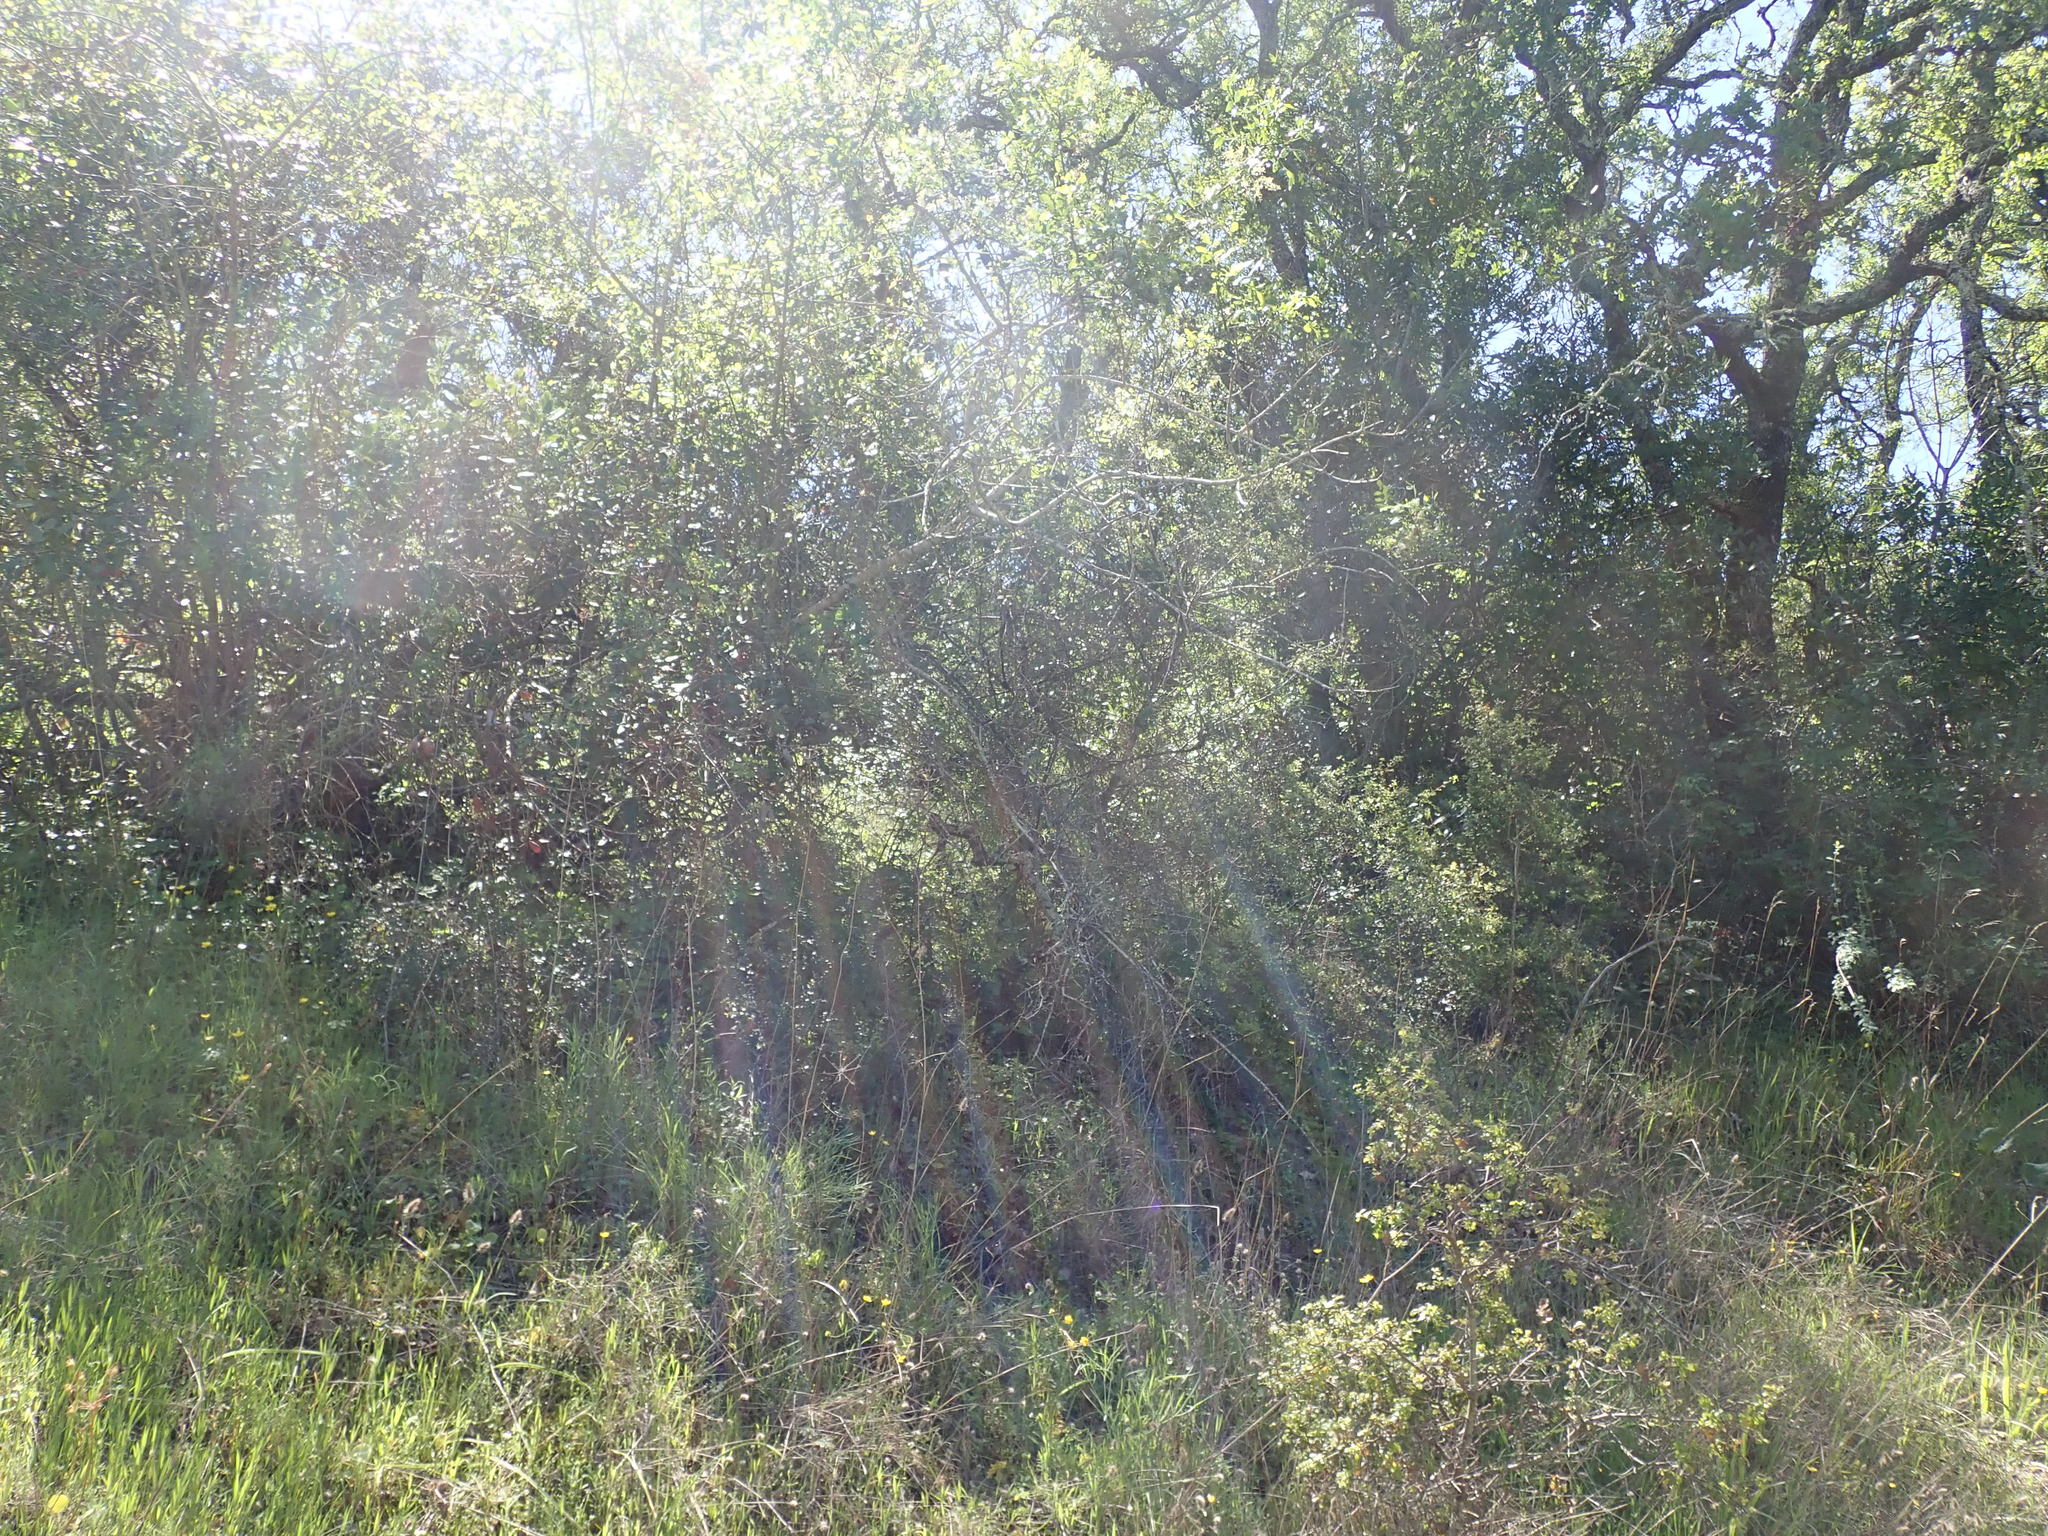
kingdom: Plantae
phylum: Tracheophyta
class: Magnoliopsida
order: Lamiales
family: Oleaceae
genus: Fraxinus
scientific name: Fraxinus dipetala
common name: California ash
